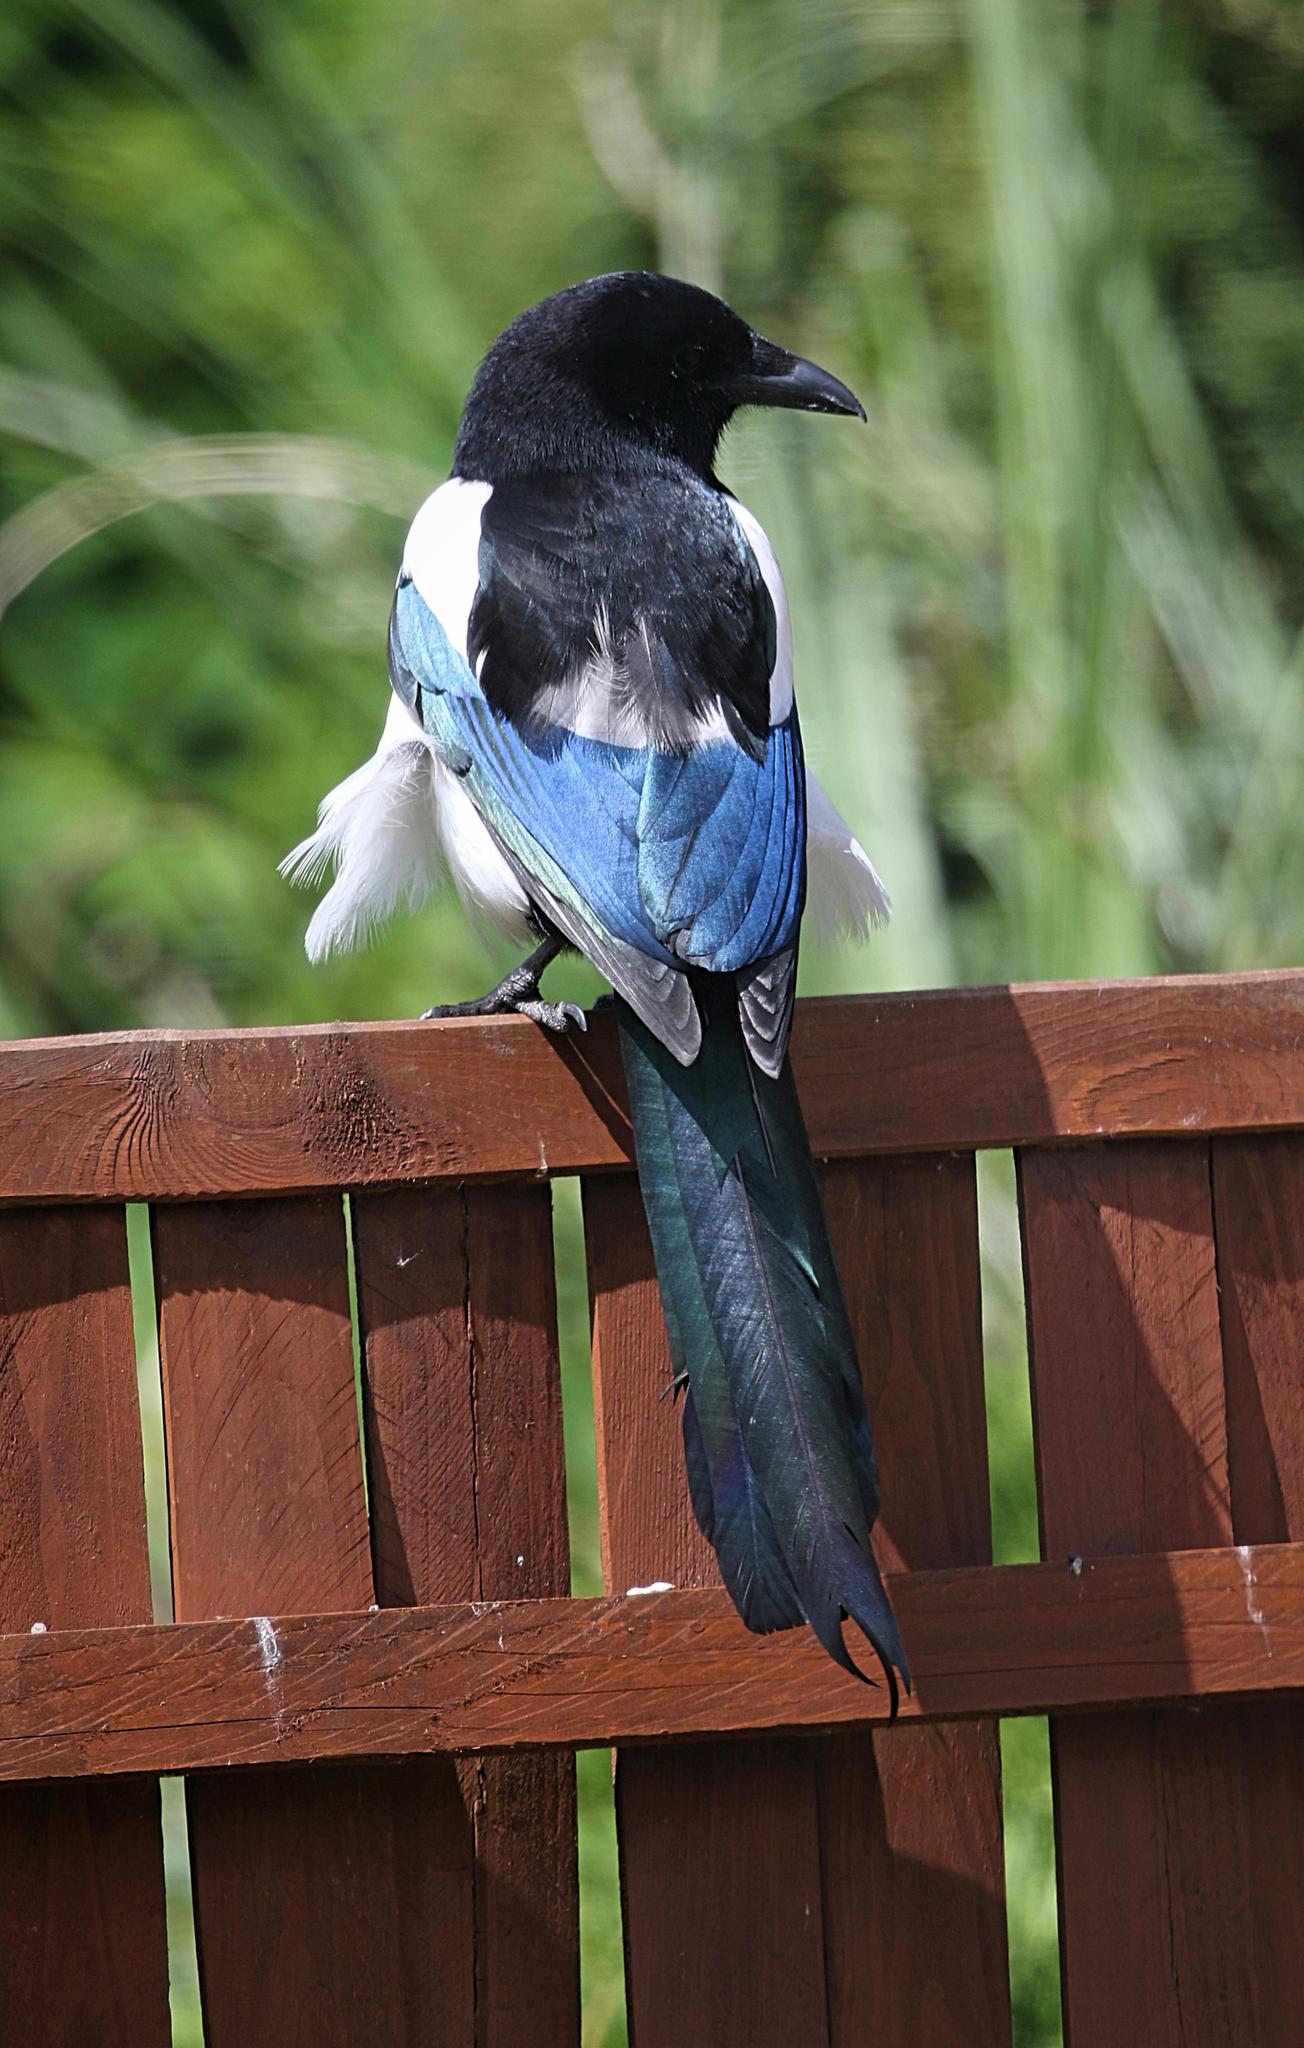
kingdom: Animalia
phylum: Chordata
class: Aves
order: Passeriformes
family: Corvidae
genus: Pica
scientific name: Pica pica
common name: Eurasian magpie
